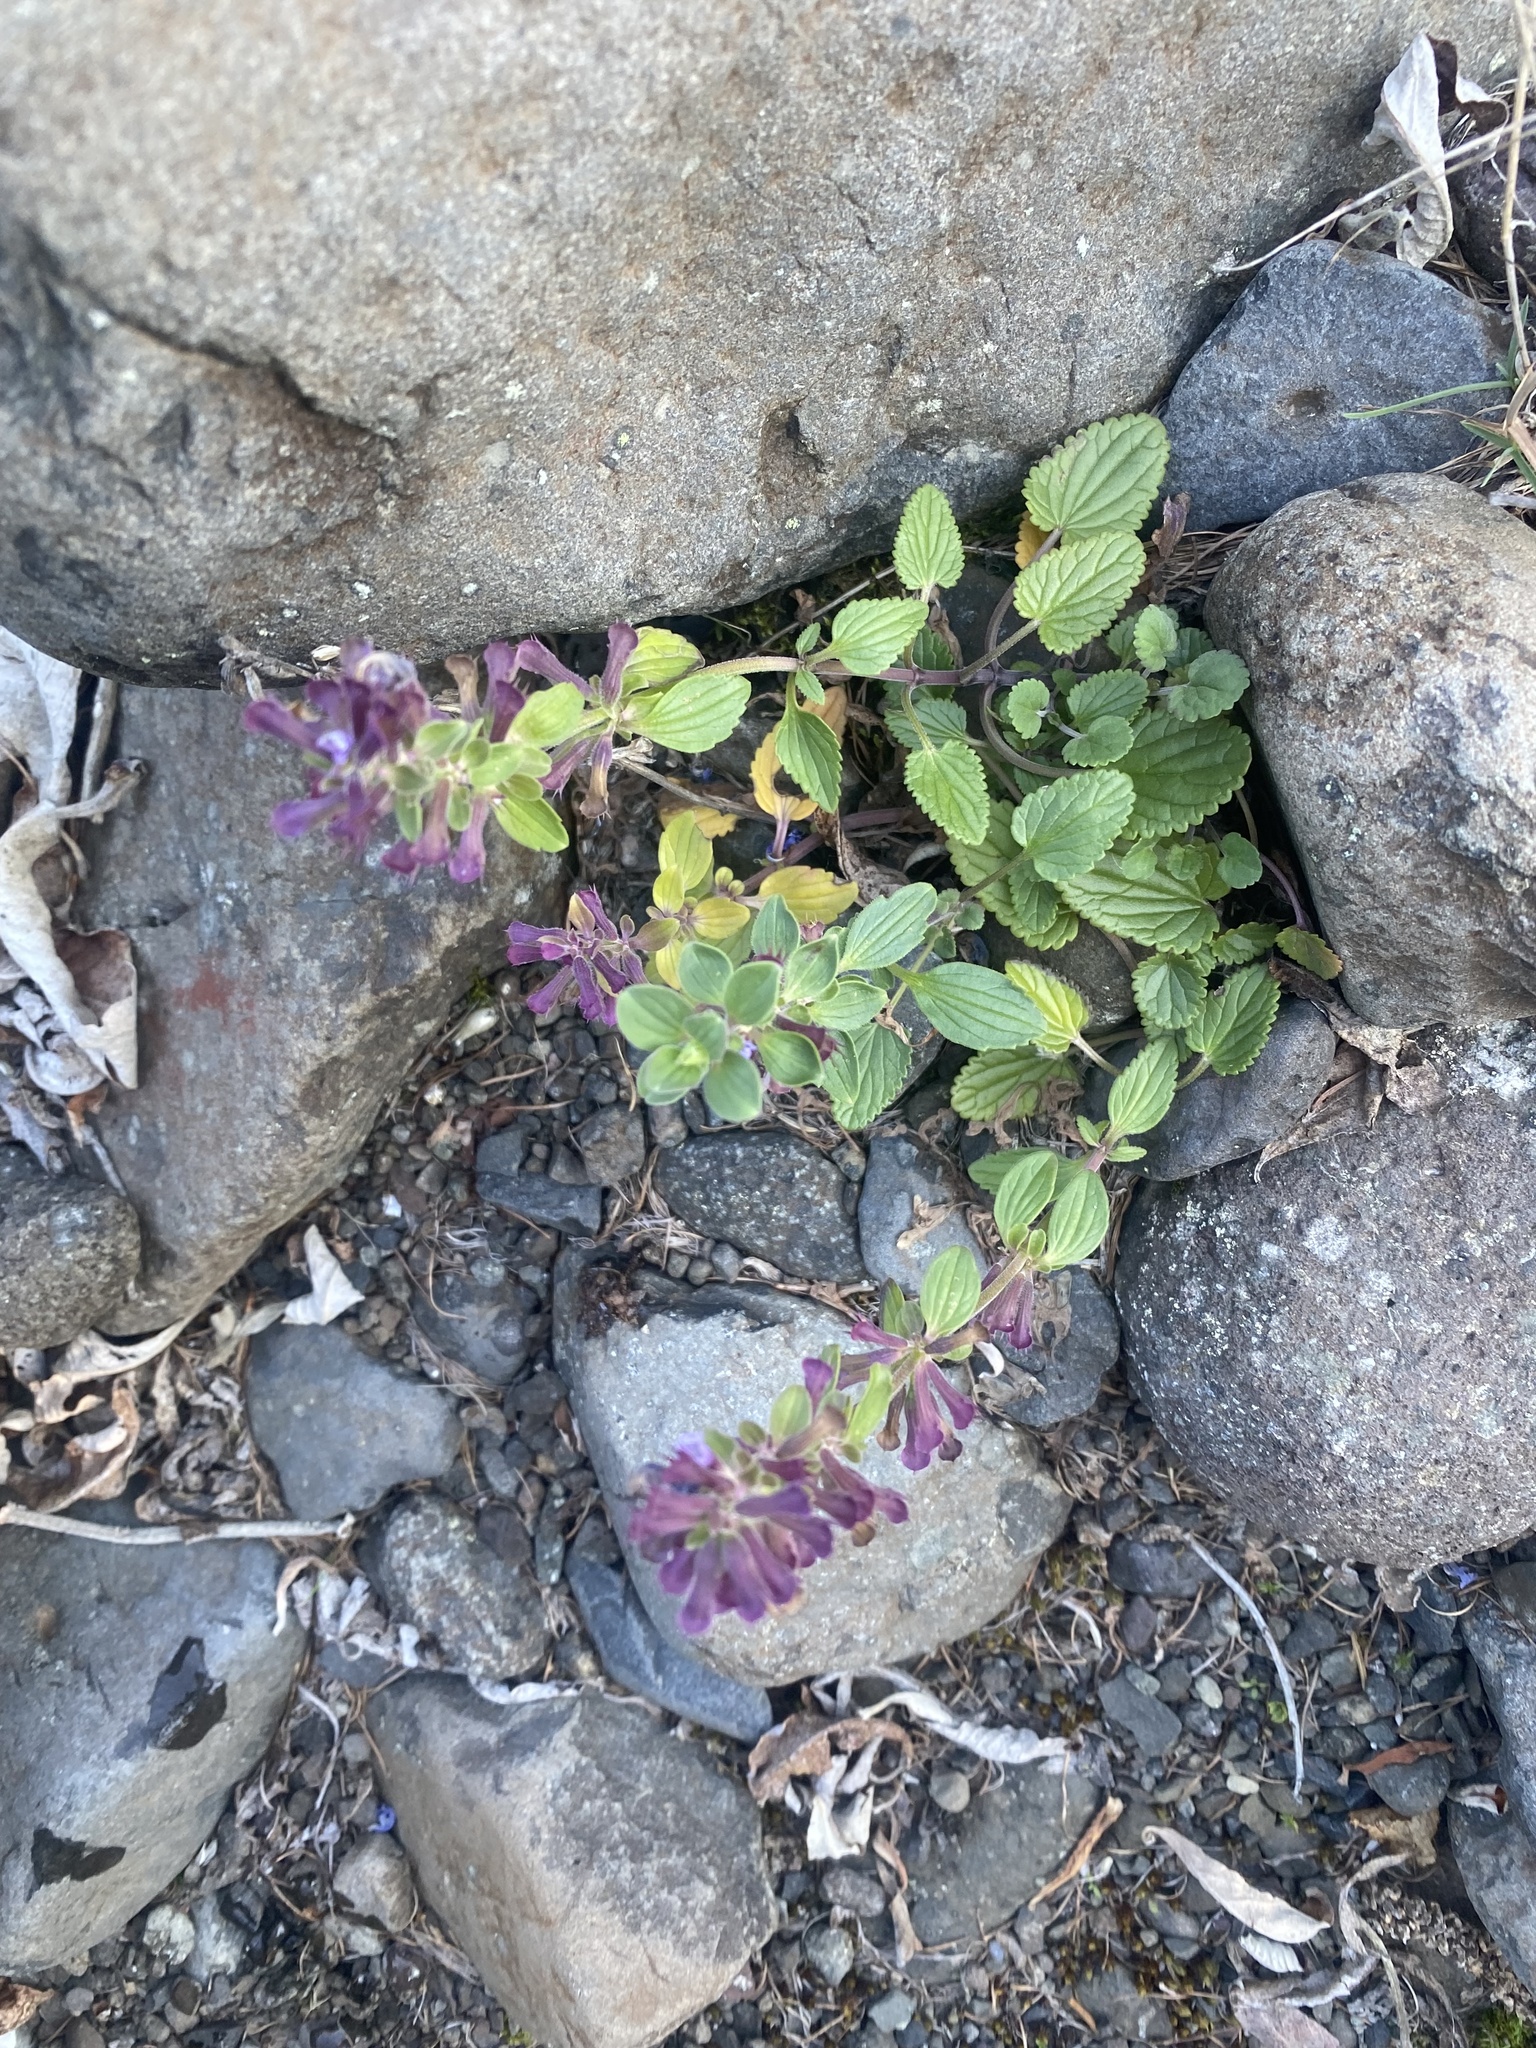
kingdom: Plantae
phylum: Tracheophyta
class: Magnoliopsida
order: Lamiales
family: Lamiaceae
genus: Dracocephalum
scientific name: Dracocephalum nutans
